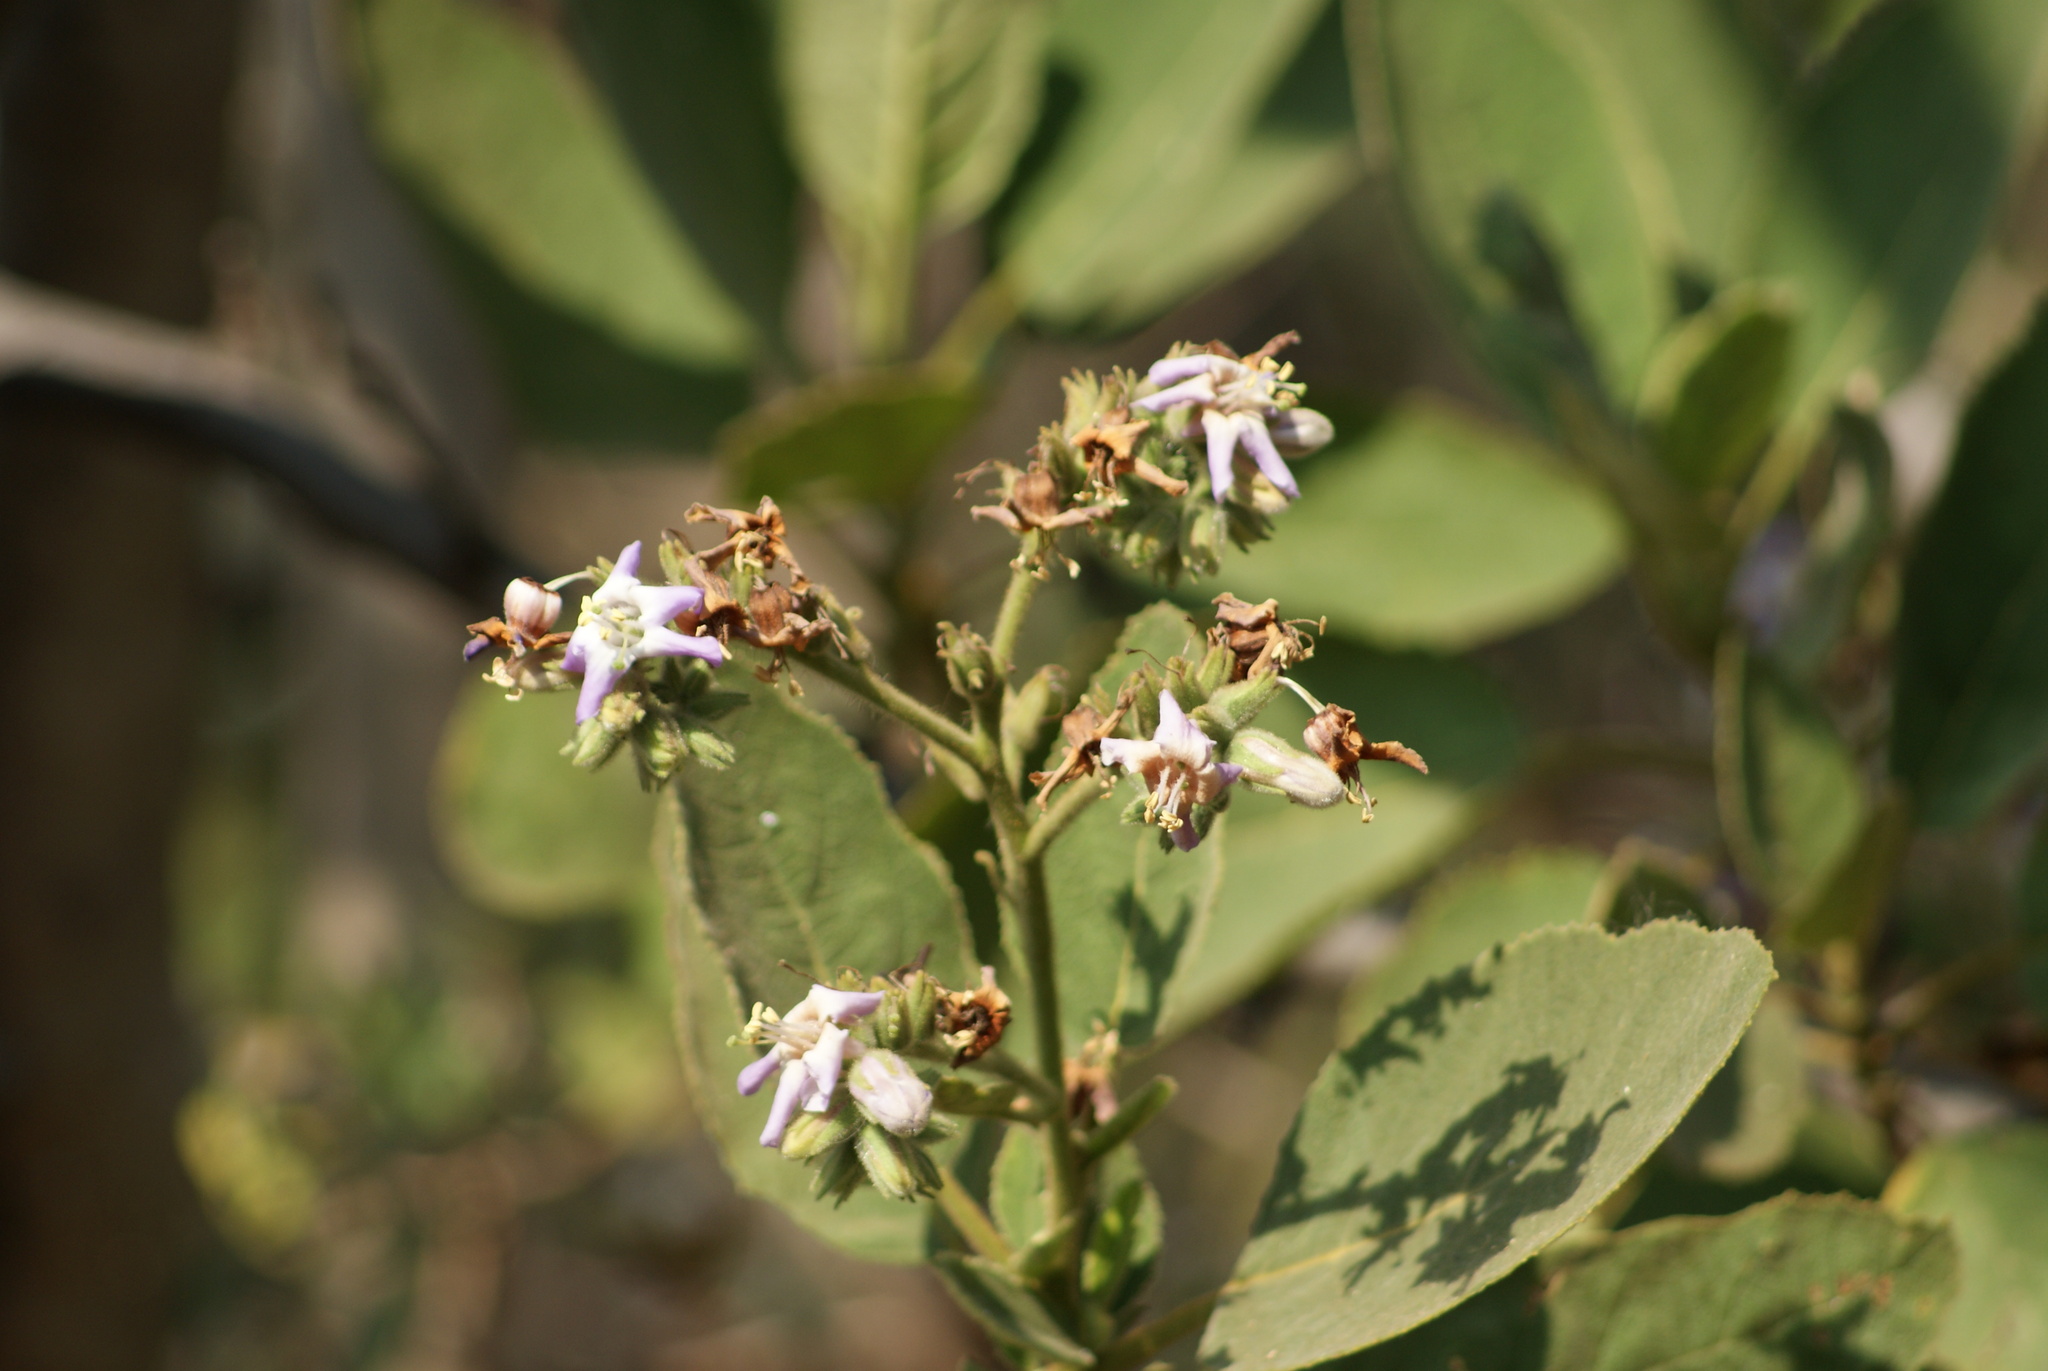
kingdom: Plantae
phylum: Tracheophyta
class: Magnoliopsida
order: Boraginales
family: Namaceae
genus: Wigandia
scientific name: Wigandia urens
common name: Caracus wigandia
